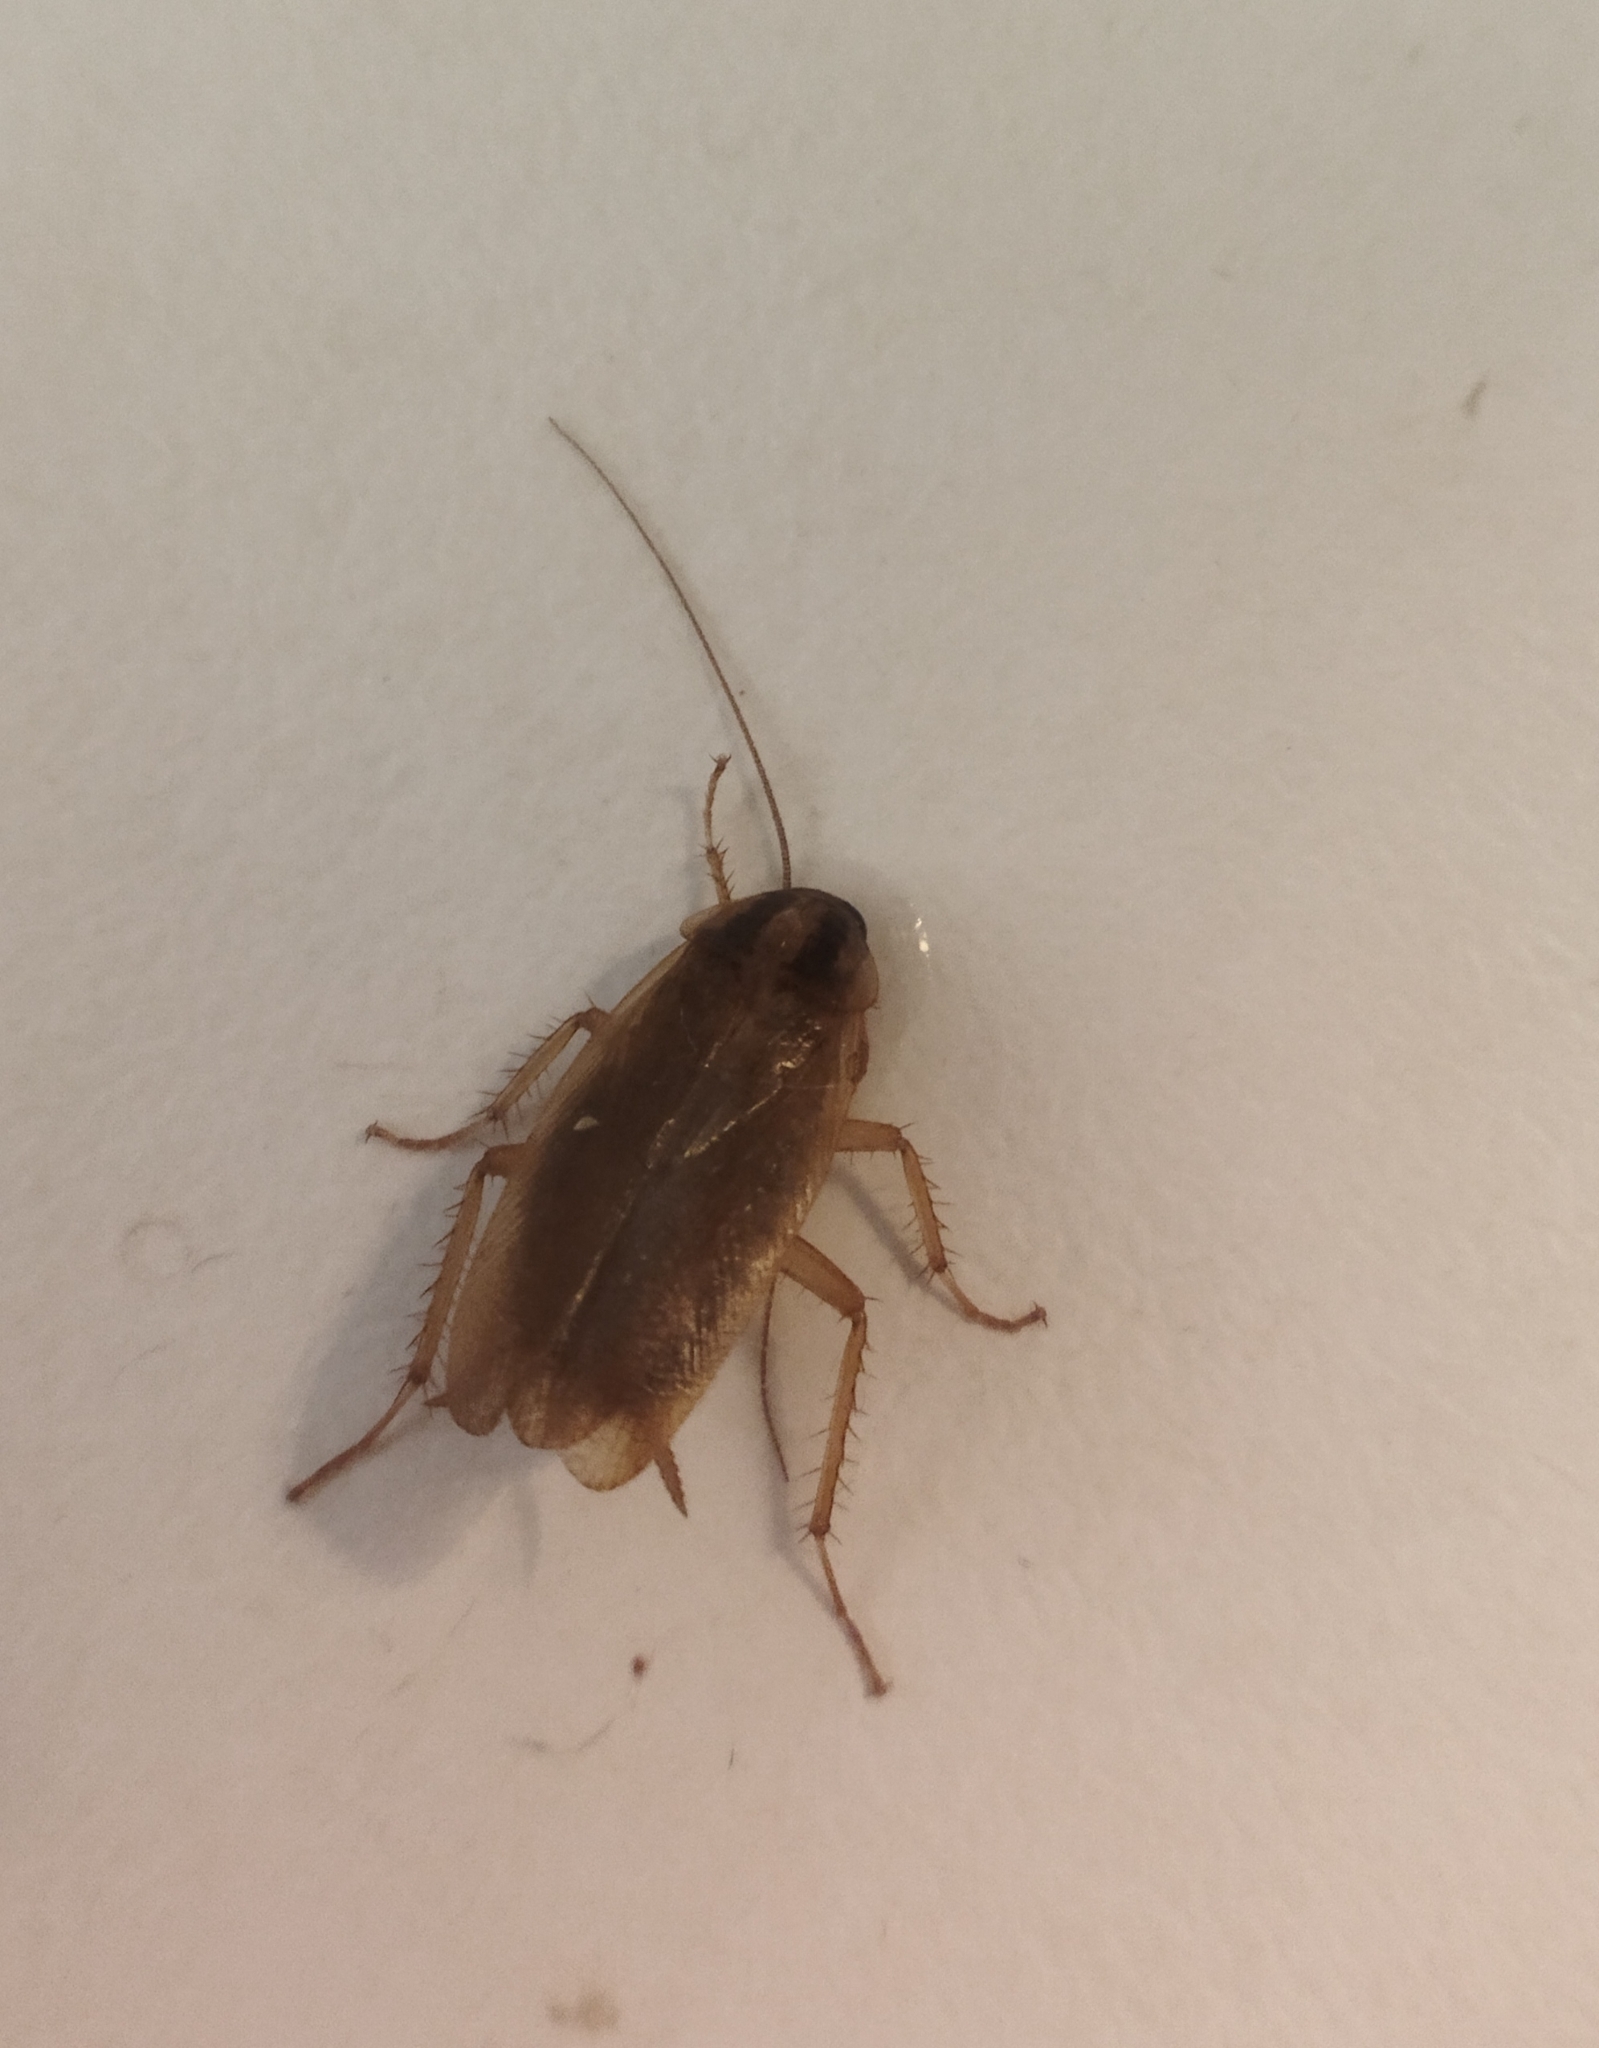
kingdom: Animalia
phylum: Arthropoda
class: Insecta
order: Blattodea
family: Ectobiidae
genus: Blattella
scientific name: Blattella germanica
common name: German cockroach
